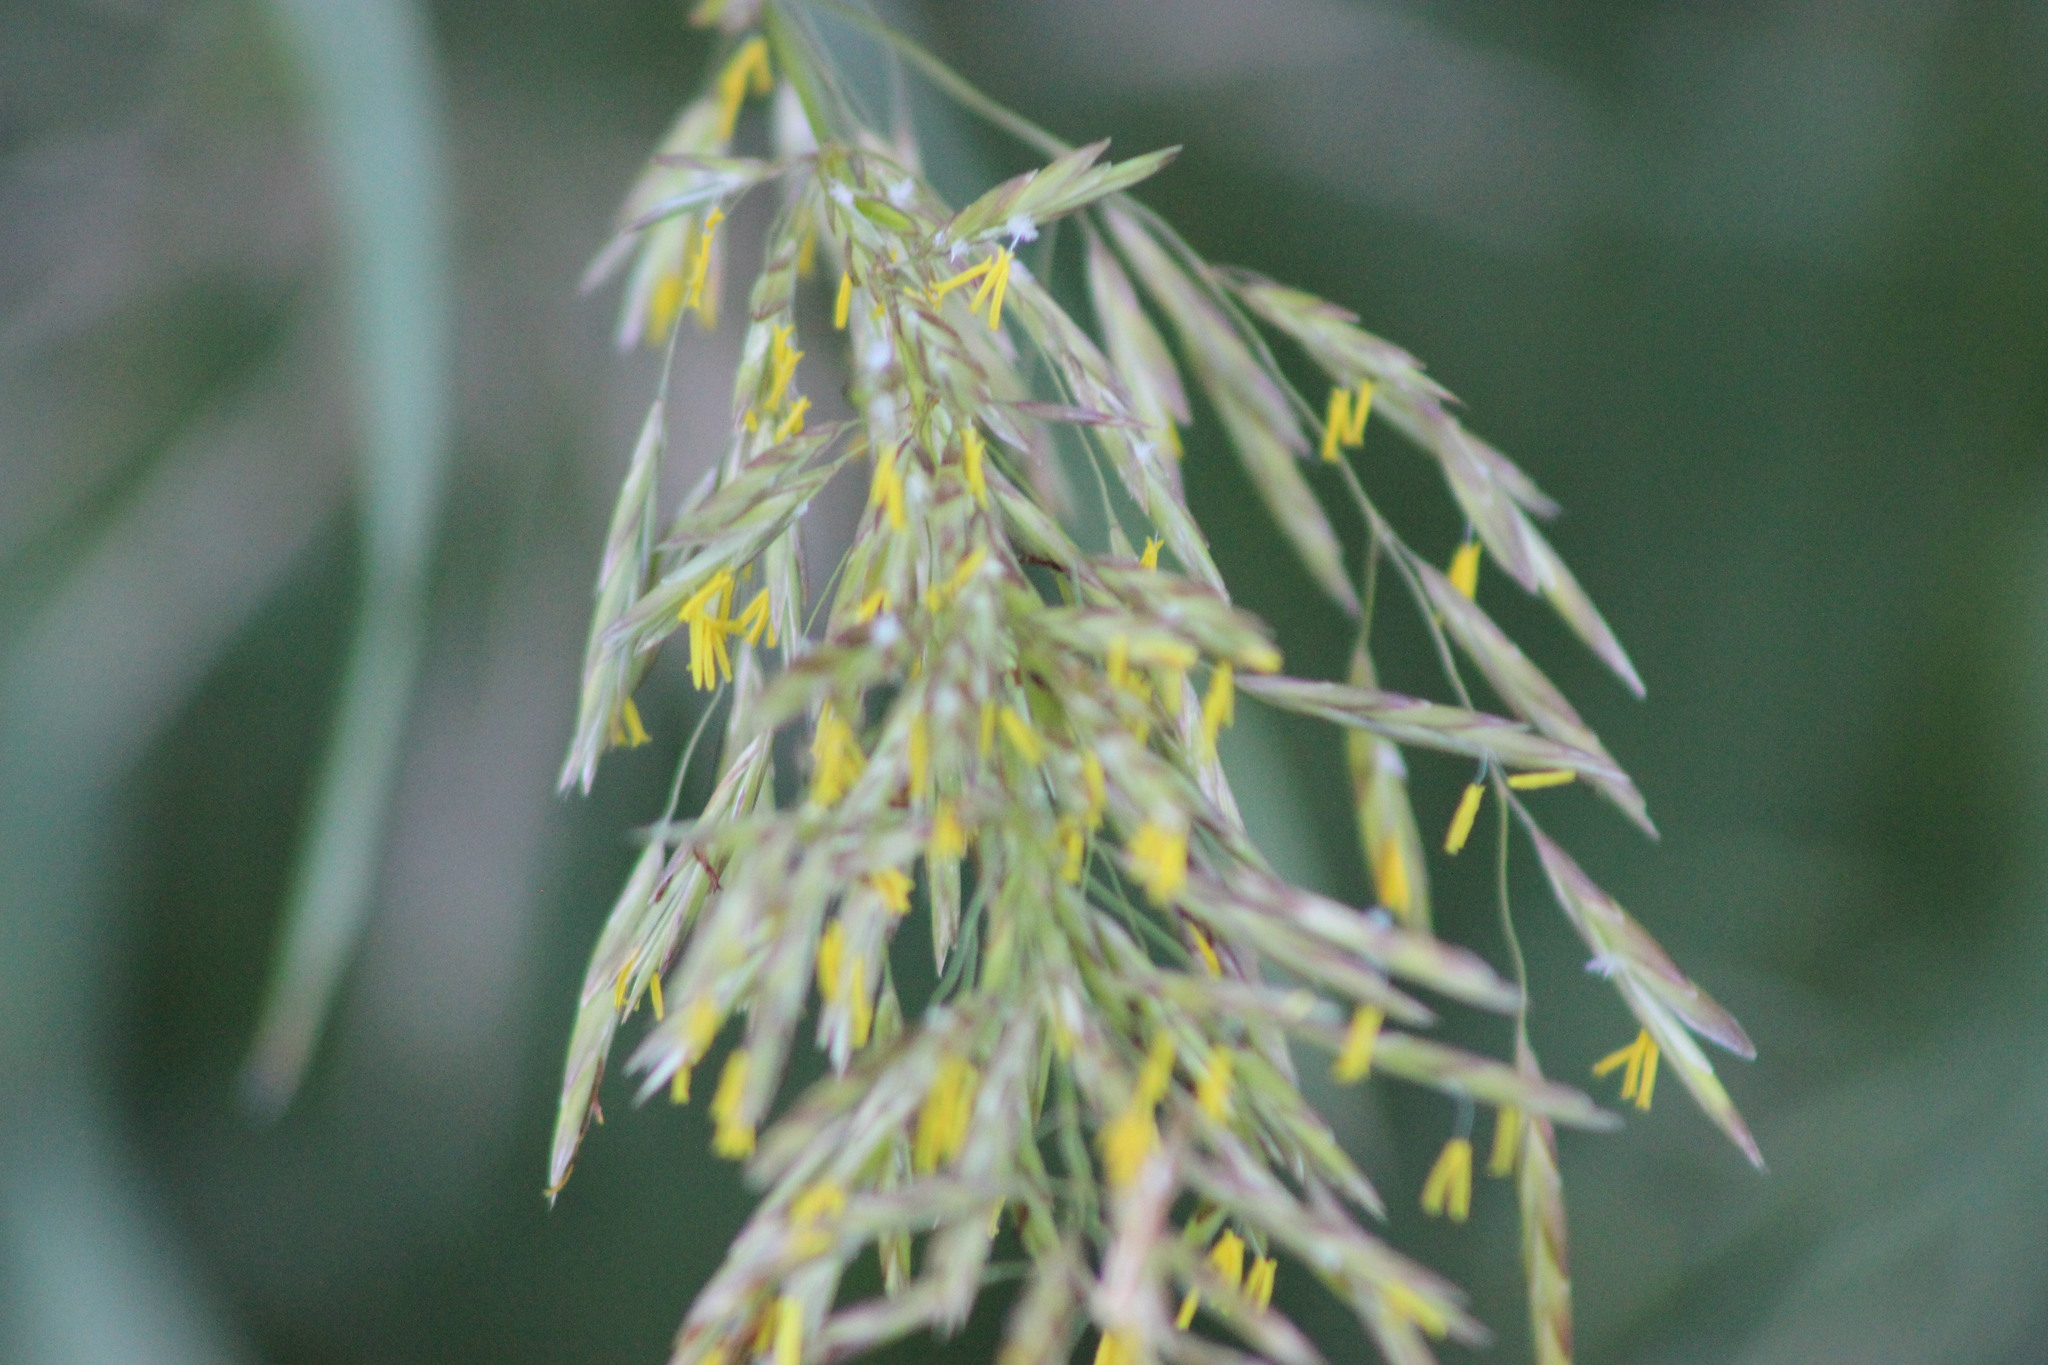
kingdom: Plantae
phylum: Tracheophyta
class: Liliopsida
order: Poales
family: Poaceae
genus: Bromus
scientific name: Bromus inermis
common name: Smooth brome
